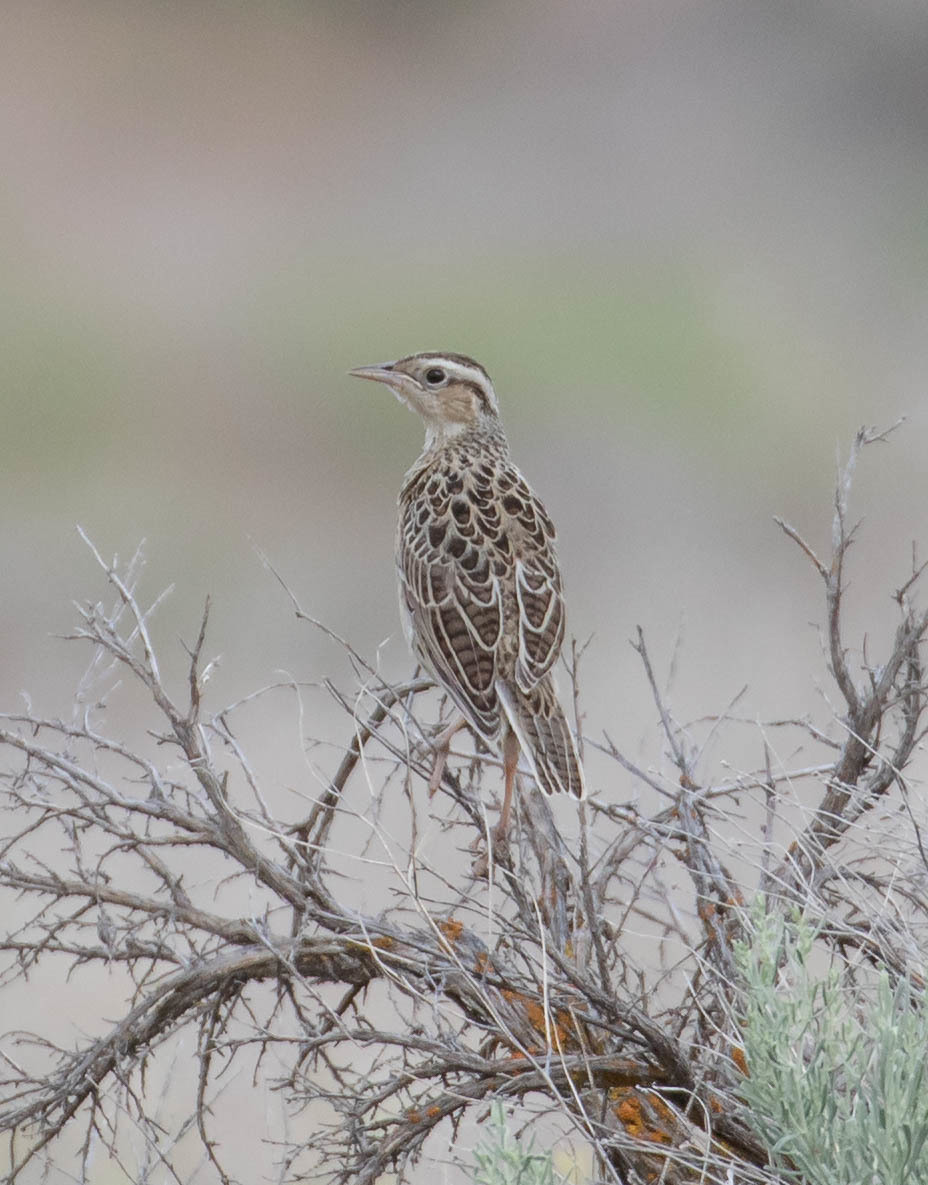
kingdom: Animalia
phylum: Chordata
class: Aves
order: Passeriformes
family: Icteridae
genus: Sturnella
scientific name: Sturnella neglecta
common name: Western meadowlark
